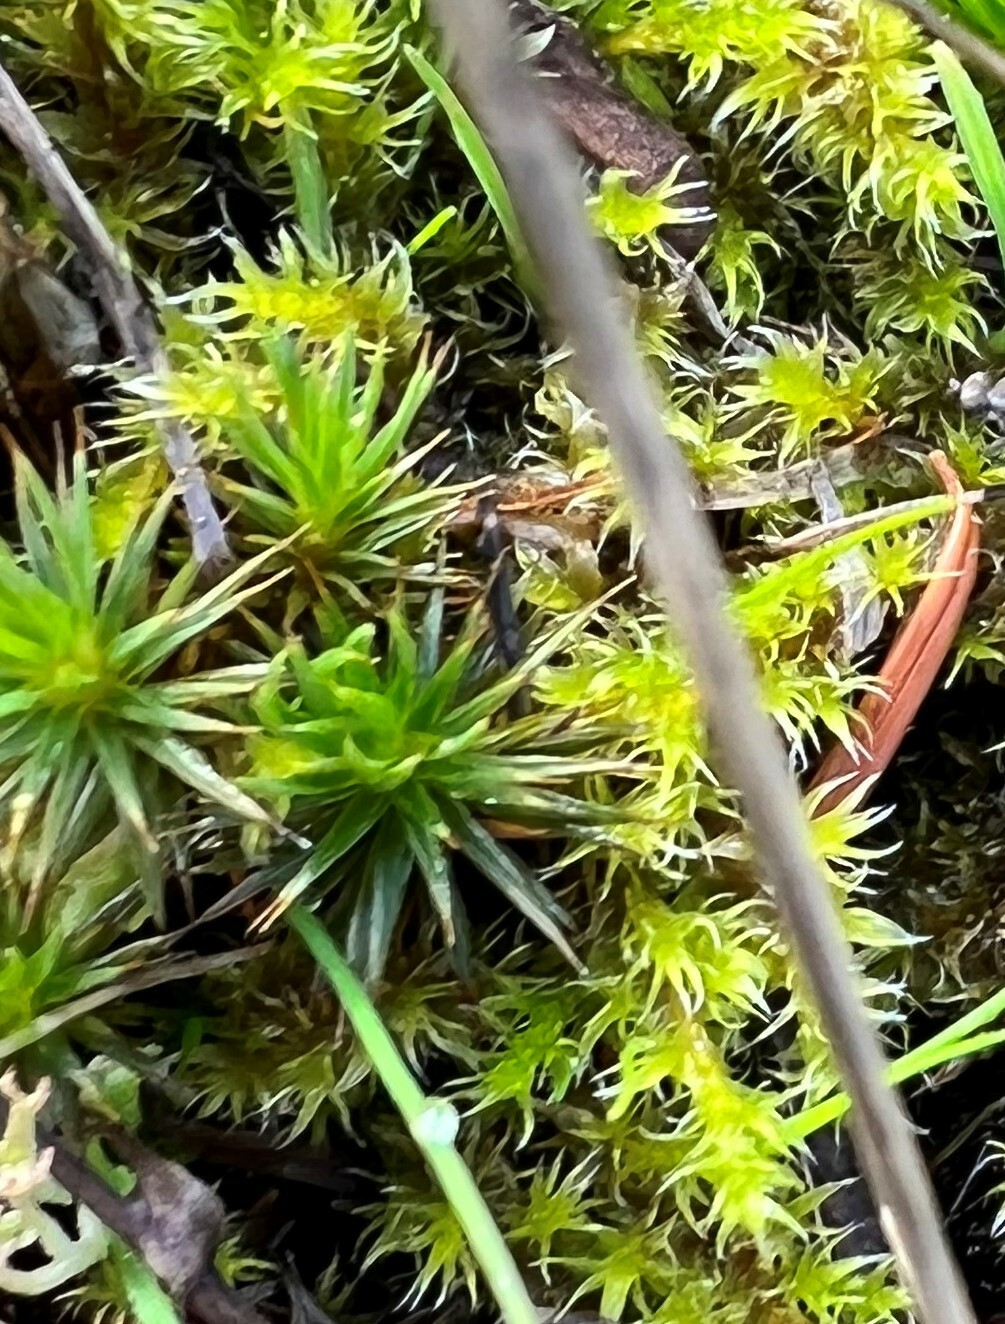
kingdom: Plantae
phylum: Bryophyta
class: Polytrichopsida
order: Polytrichales
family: Polytrichaceae
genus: Polytrichum
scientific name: Polytrichum juniperinum
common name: Juniper haircap moss
